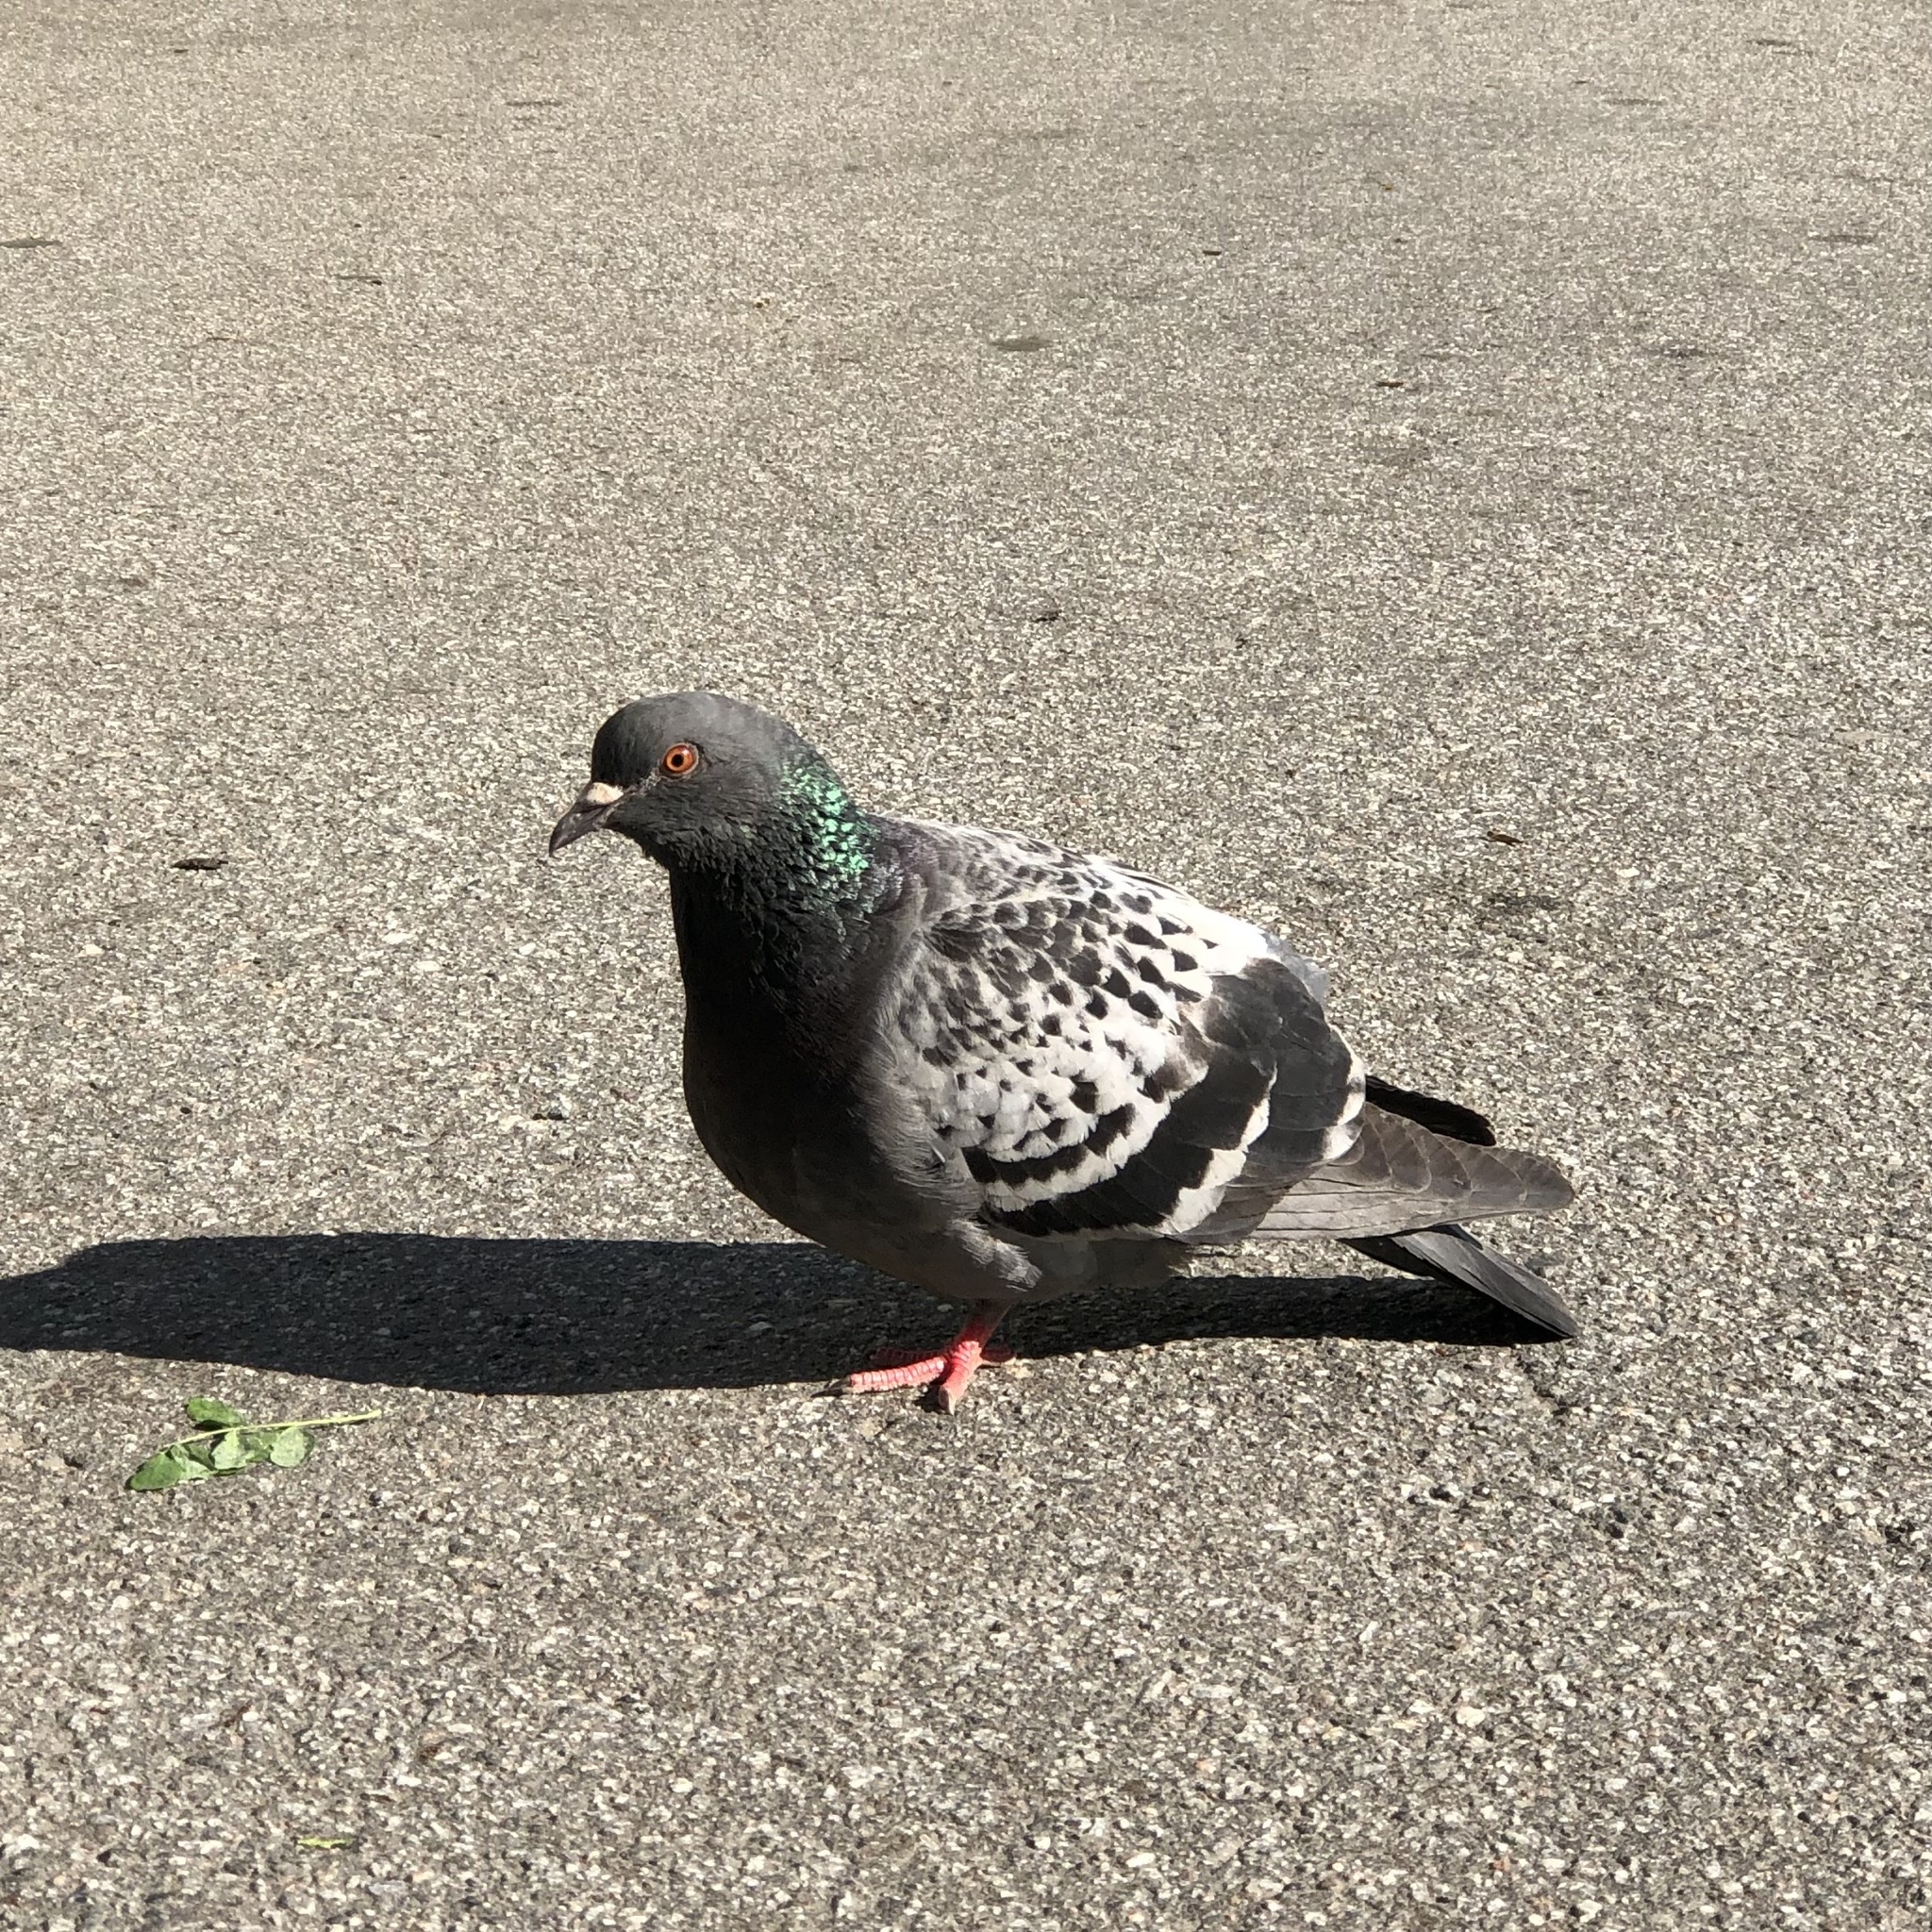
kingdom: Animalia
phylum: Chordata
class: Aves
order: Columbiformes
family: Columbidae
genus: Columba
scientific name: Columba livia
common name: Rock pigeon
